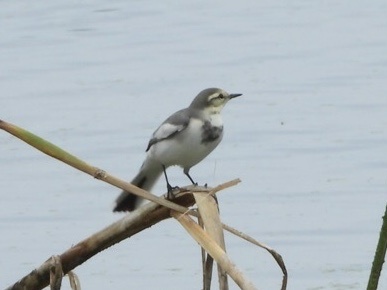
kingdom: Animalia
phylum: Chordata
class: Aves
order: Passeriformes
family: Motacillidae
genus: Motacilla
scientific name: Motacilla alba
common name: White wagtail
